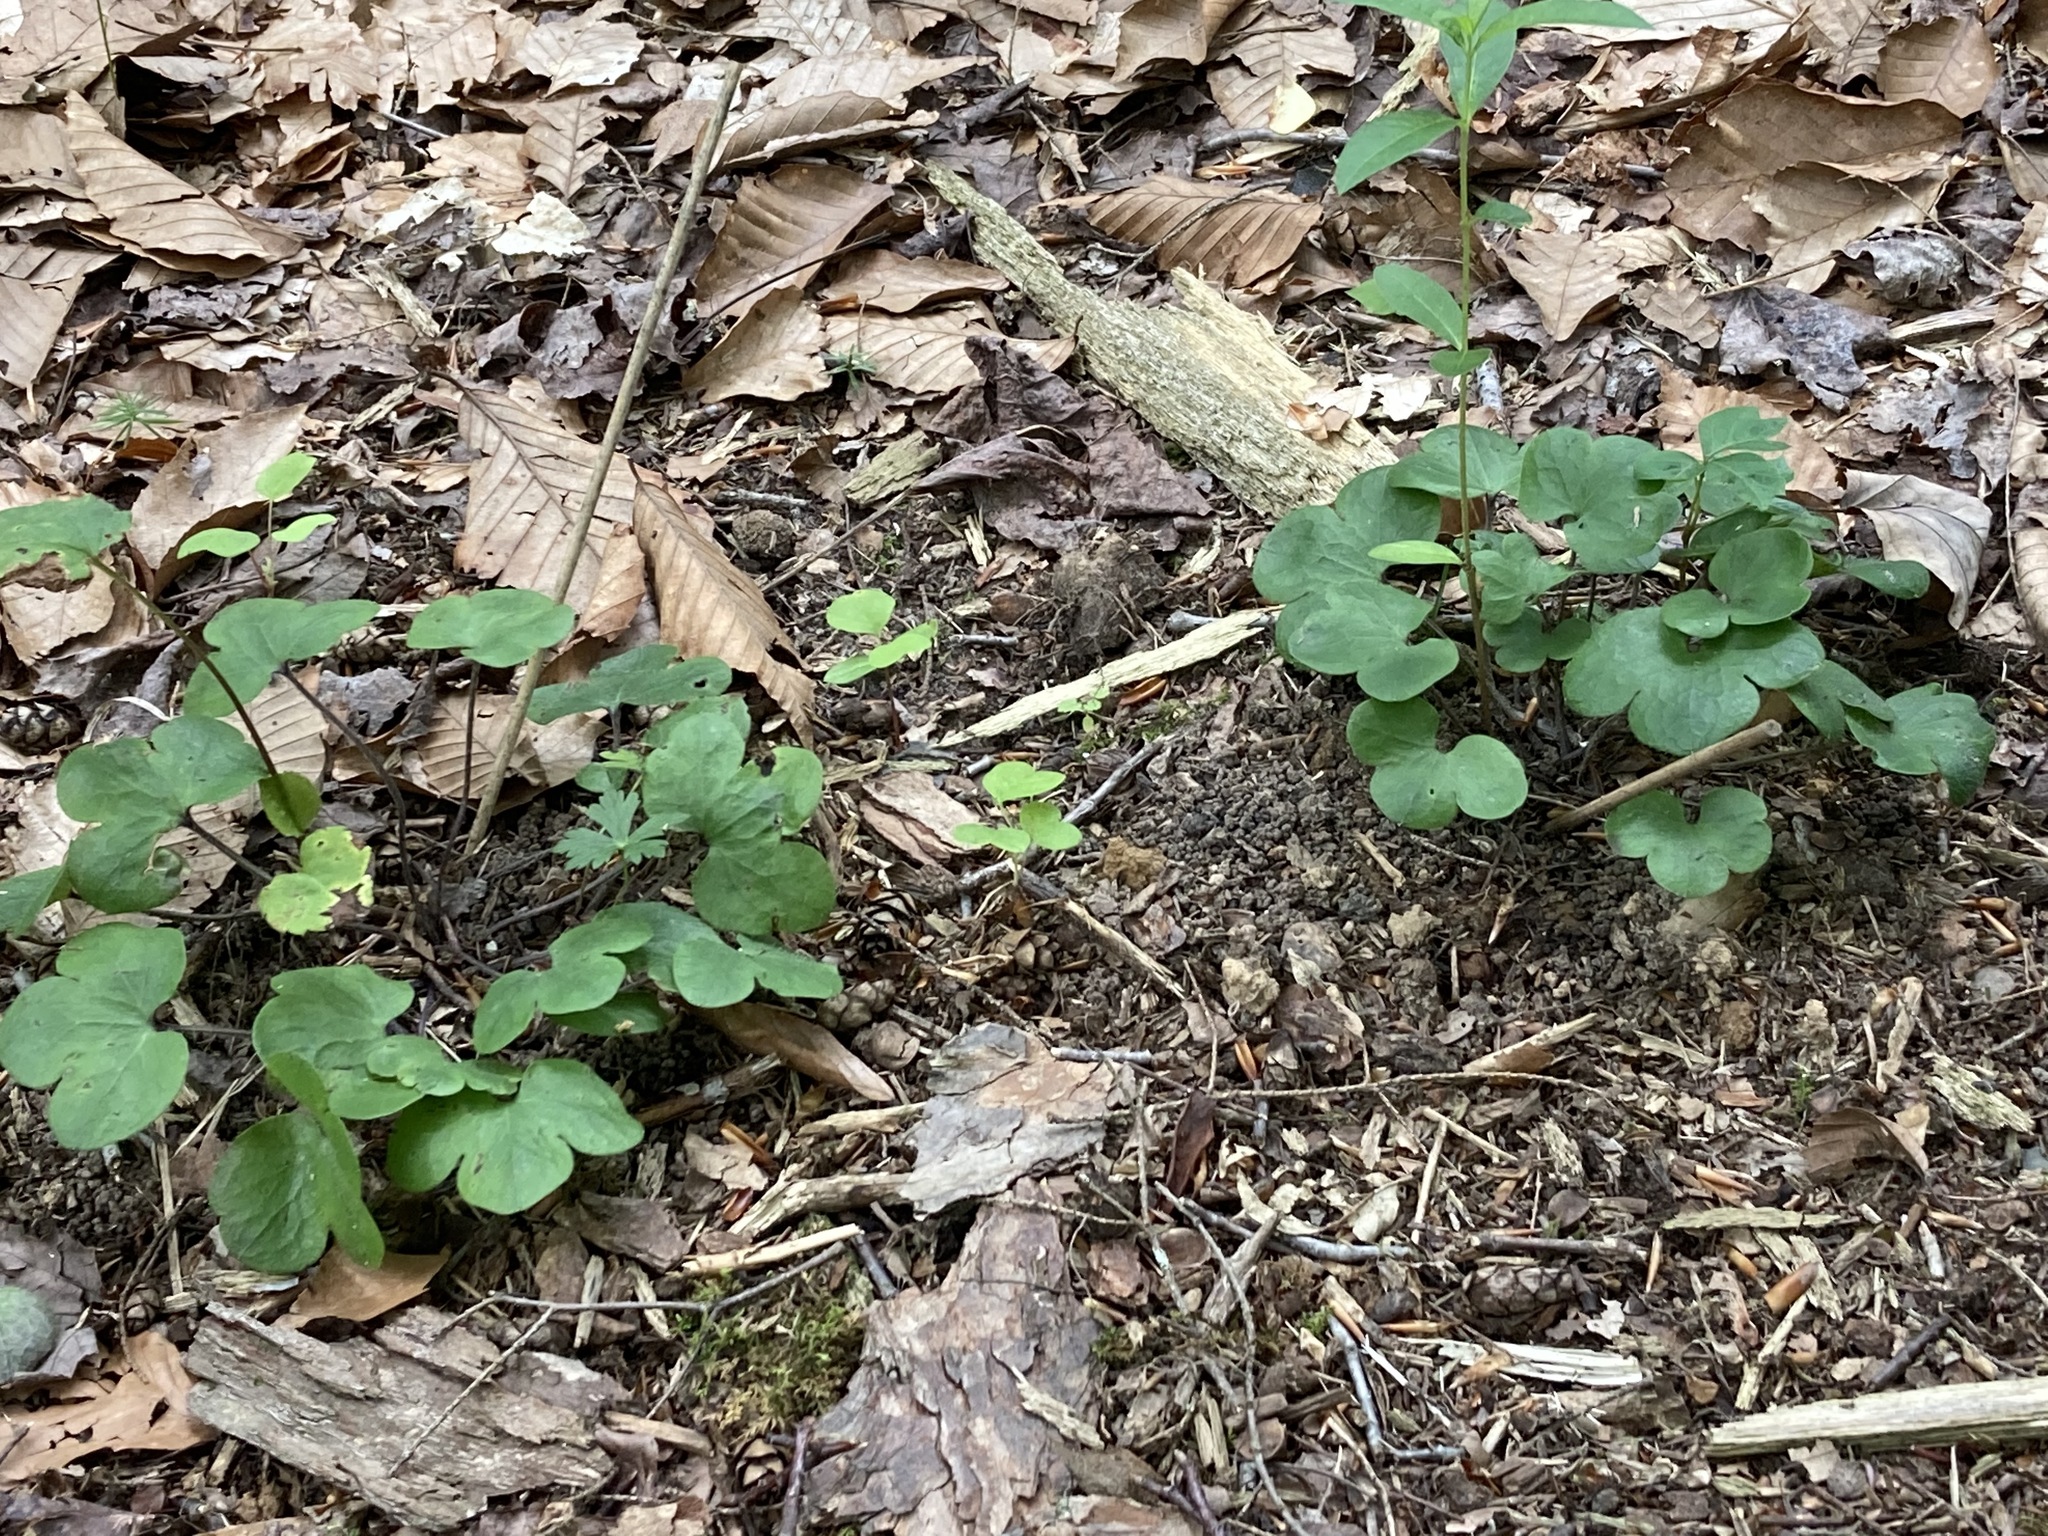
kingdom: Plantae
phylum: Tracheophyta
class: Magnoliopsida
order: Ranunculales
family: Ranunculaceae
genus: Hepatica
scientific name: Hepatica americana
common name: American hepatica
